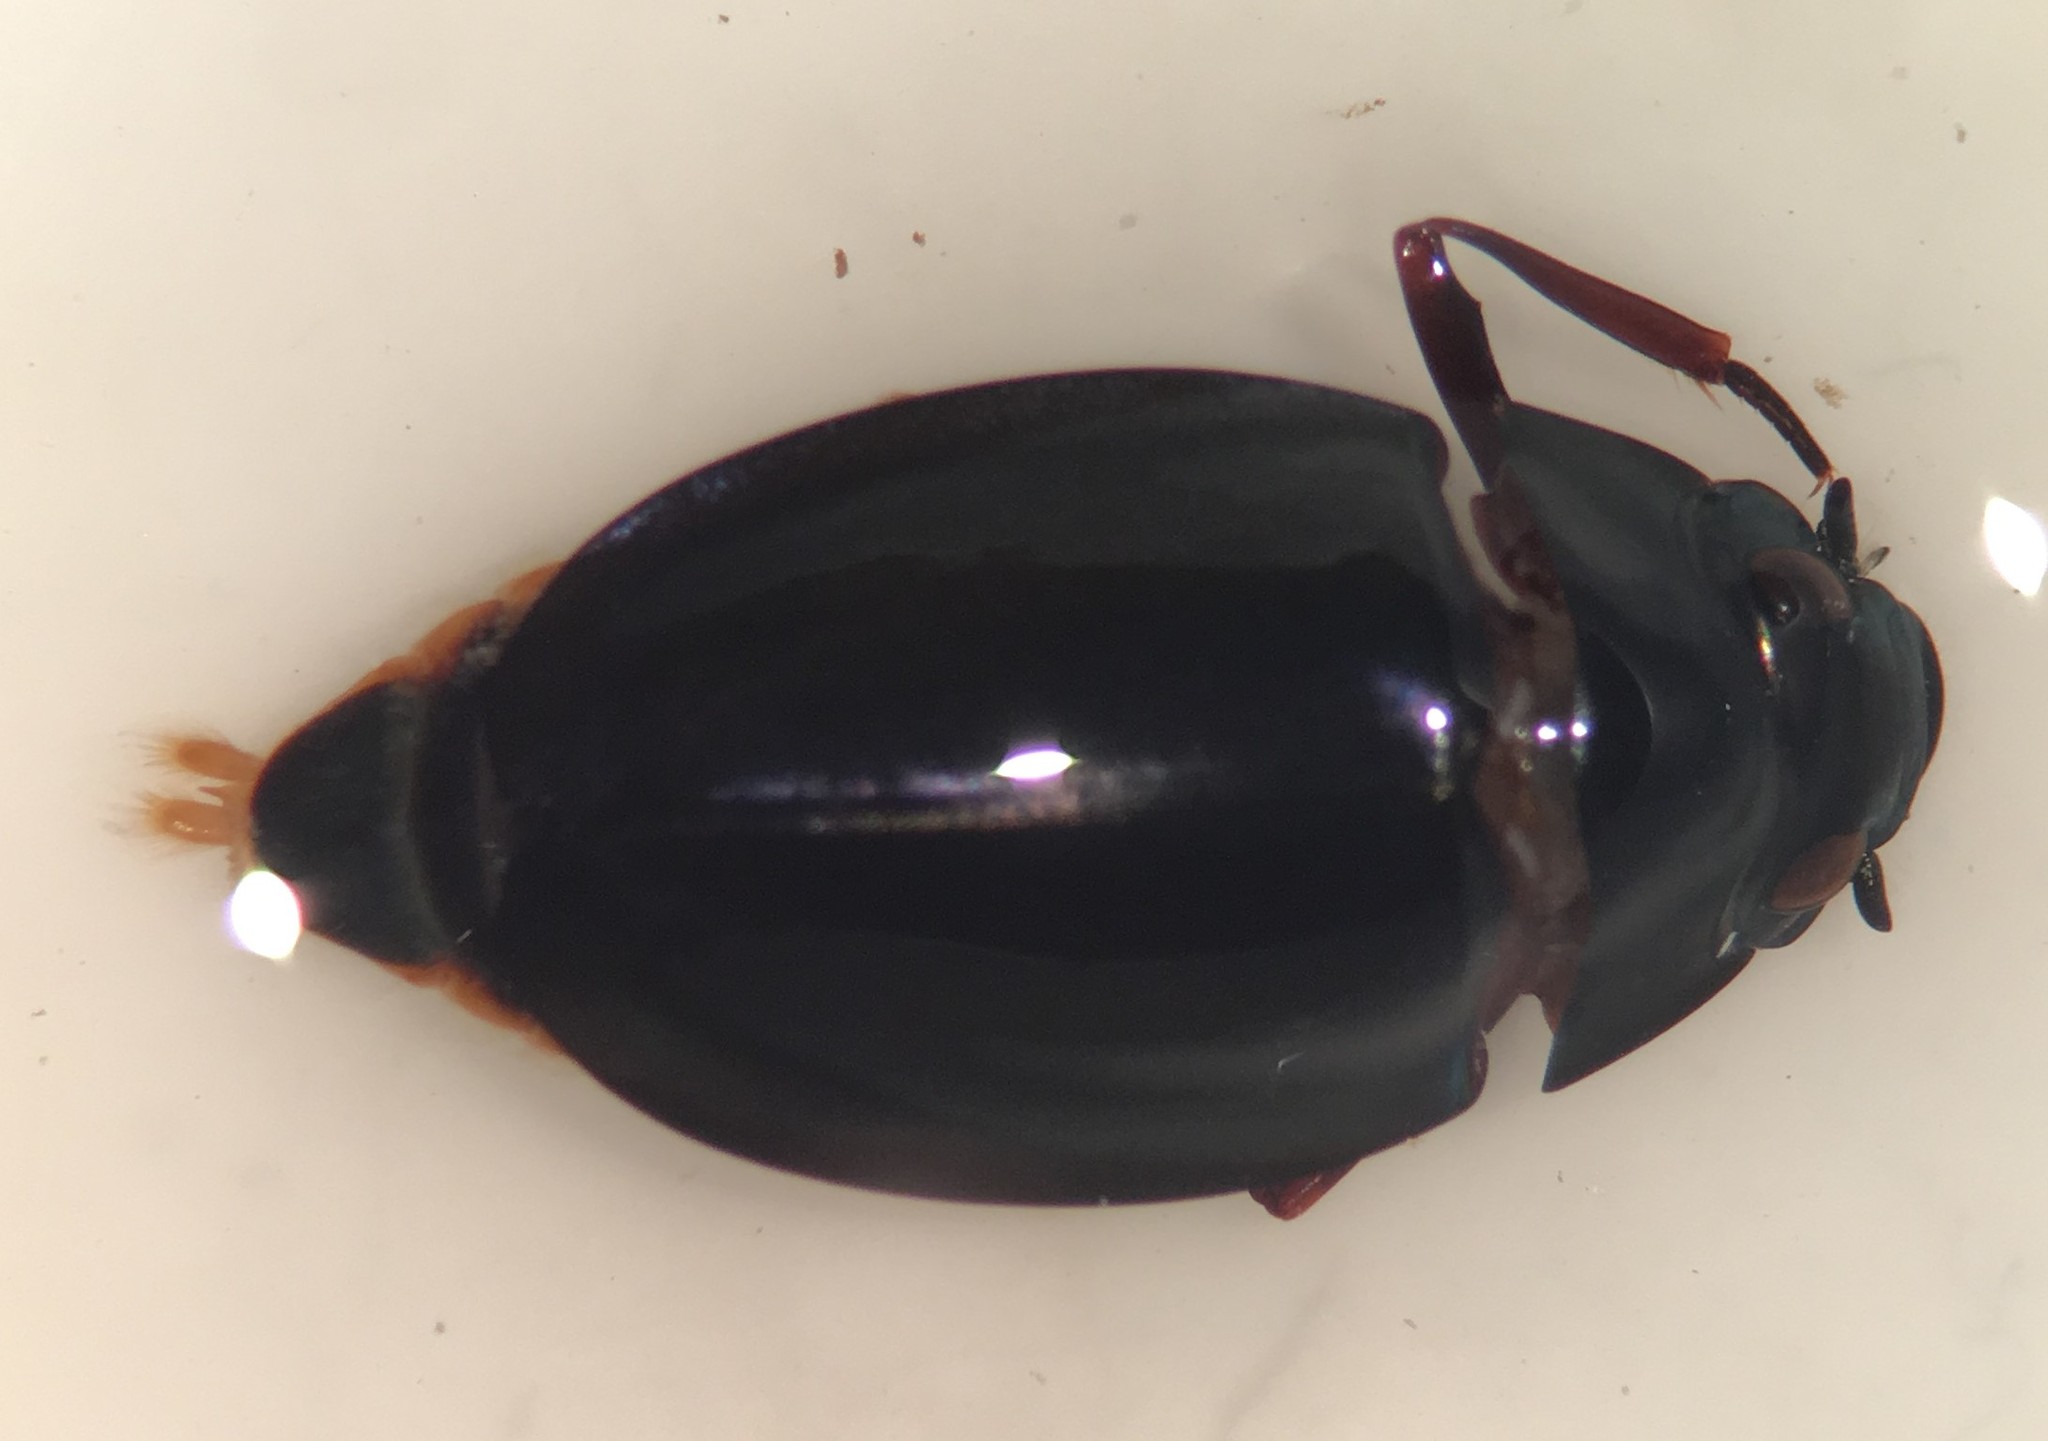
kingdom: Animalia
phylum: Arthropoda
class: Insecta
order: Coleoptera
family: Gyrinidae
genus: Dineutus
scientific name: Dineutus emarginatus
